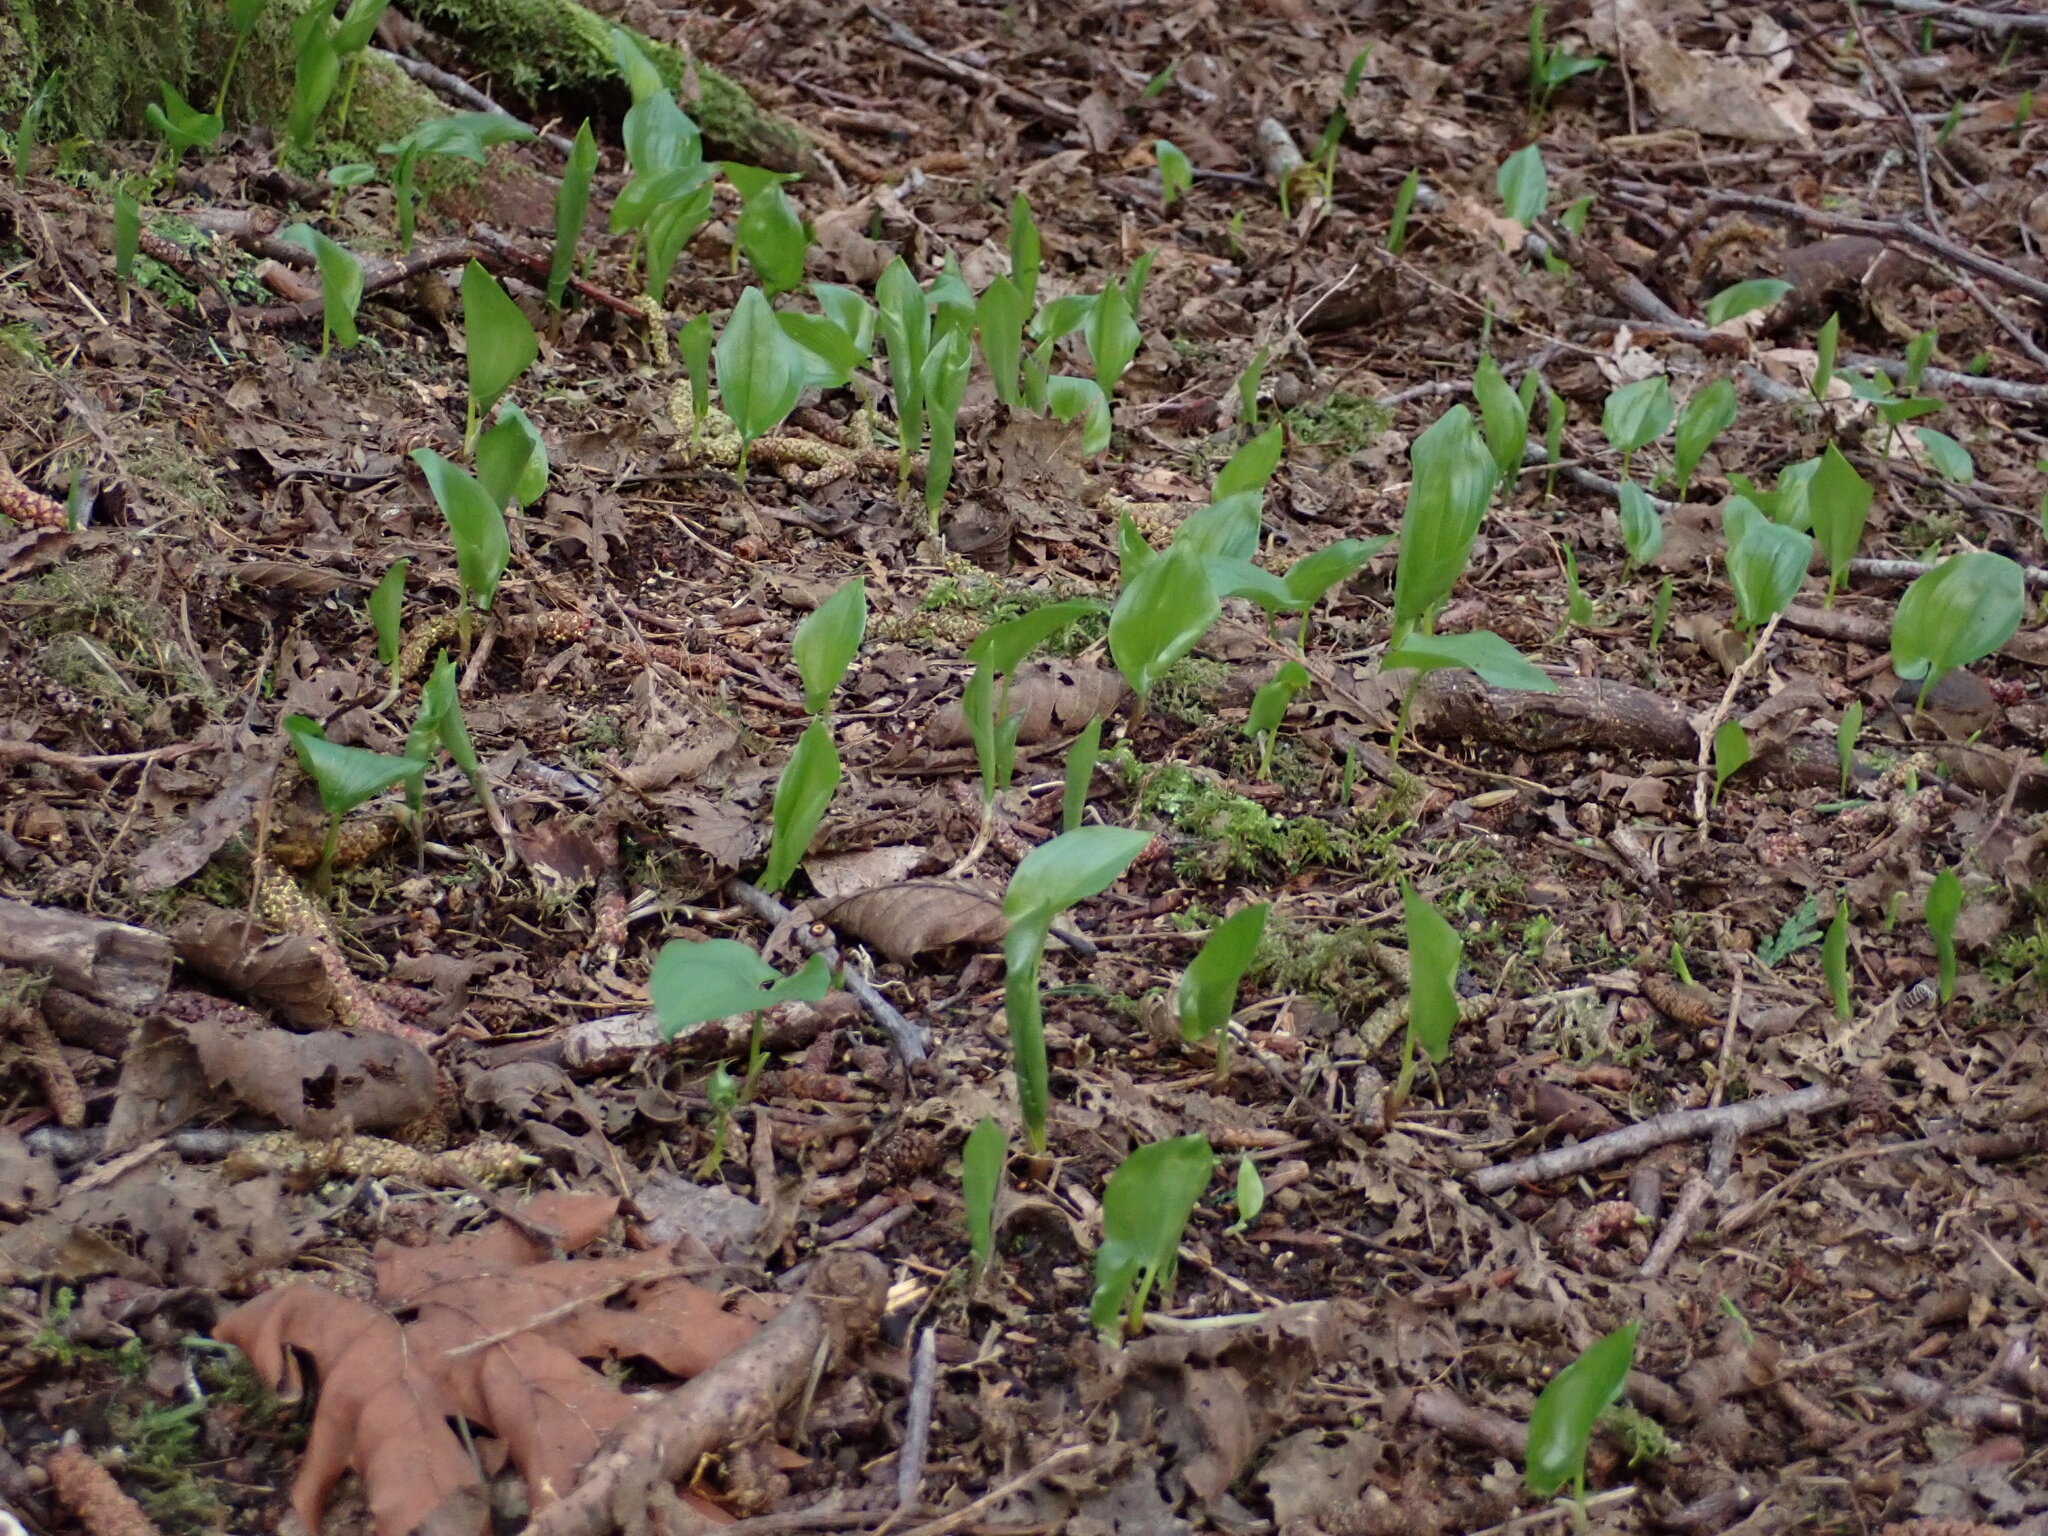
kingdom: Plantae
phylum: Tracheophyta
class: Liliopsida
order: Asparagales
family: Asparagaceae
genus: Maianthemum
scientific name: Maianthemum dilatatum
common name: False lily-of-the-valley
